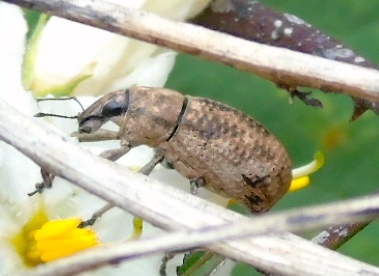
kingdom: Animalia
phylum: Arthropoda
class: Insecta
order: Coleoptera
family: Curculionidae
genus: Epicaerus
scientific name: Epicaerus
